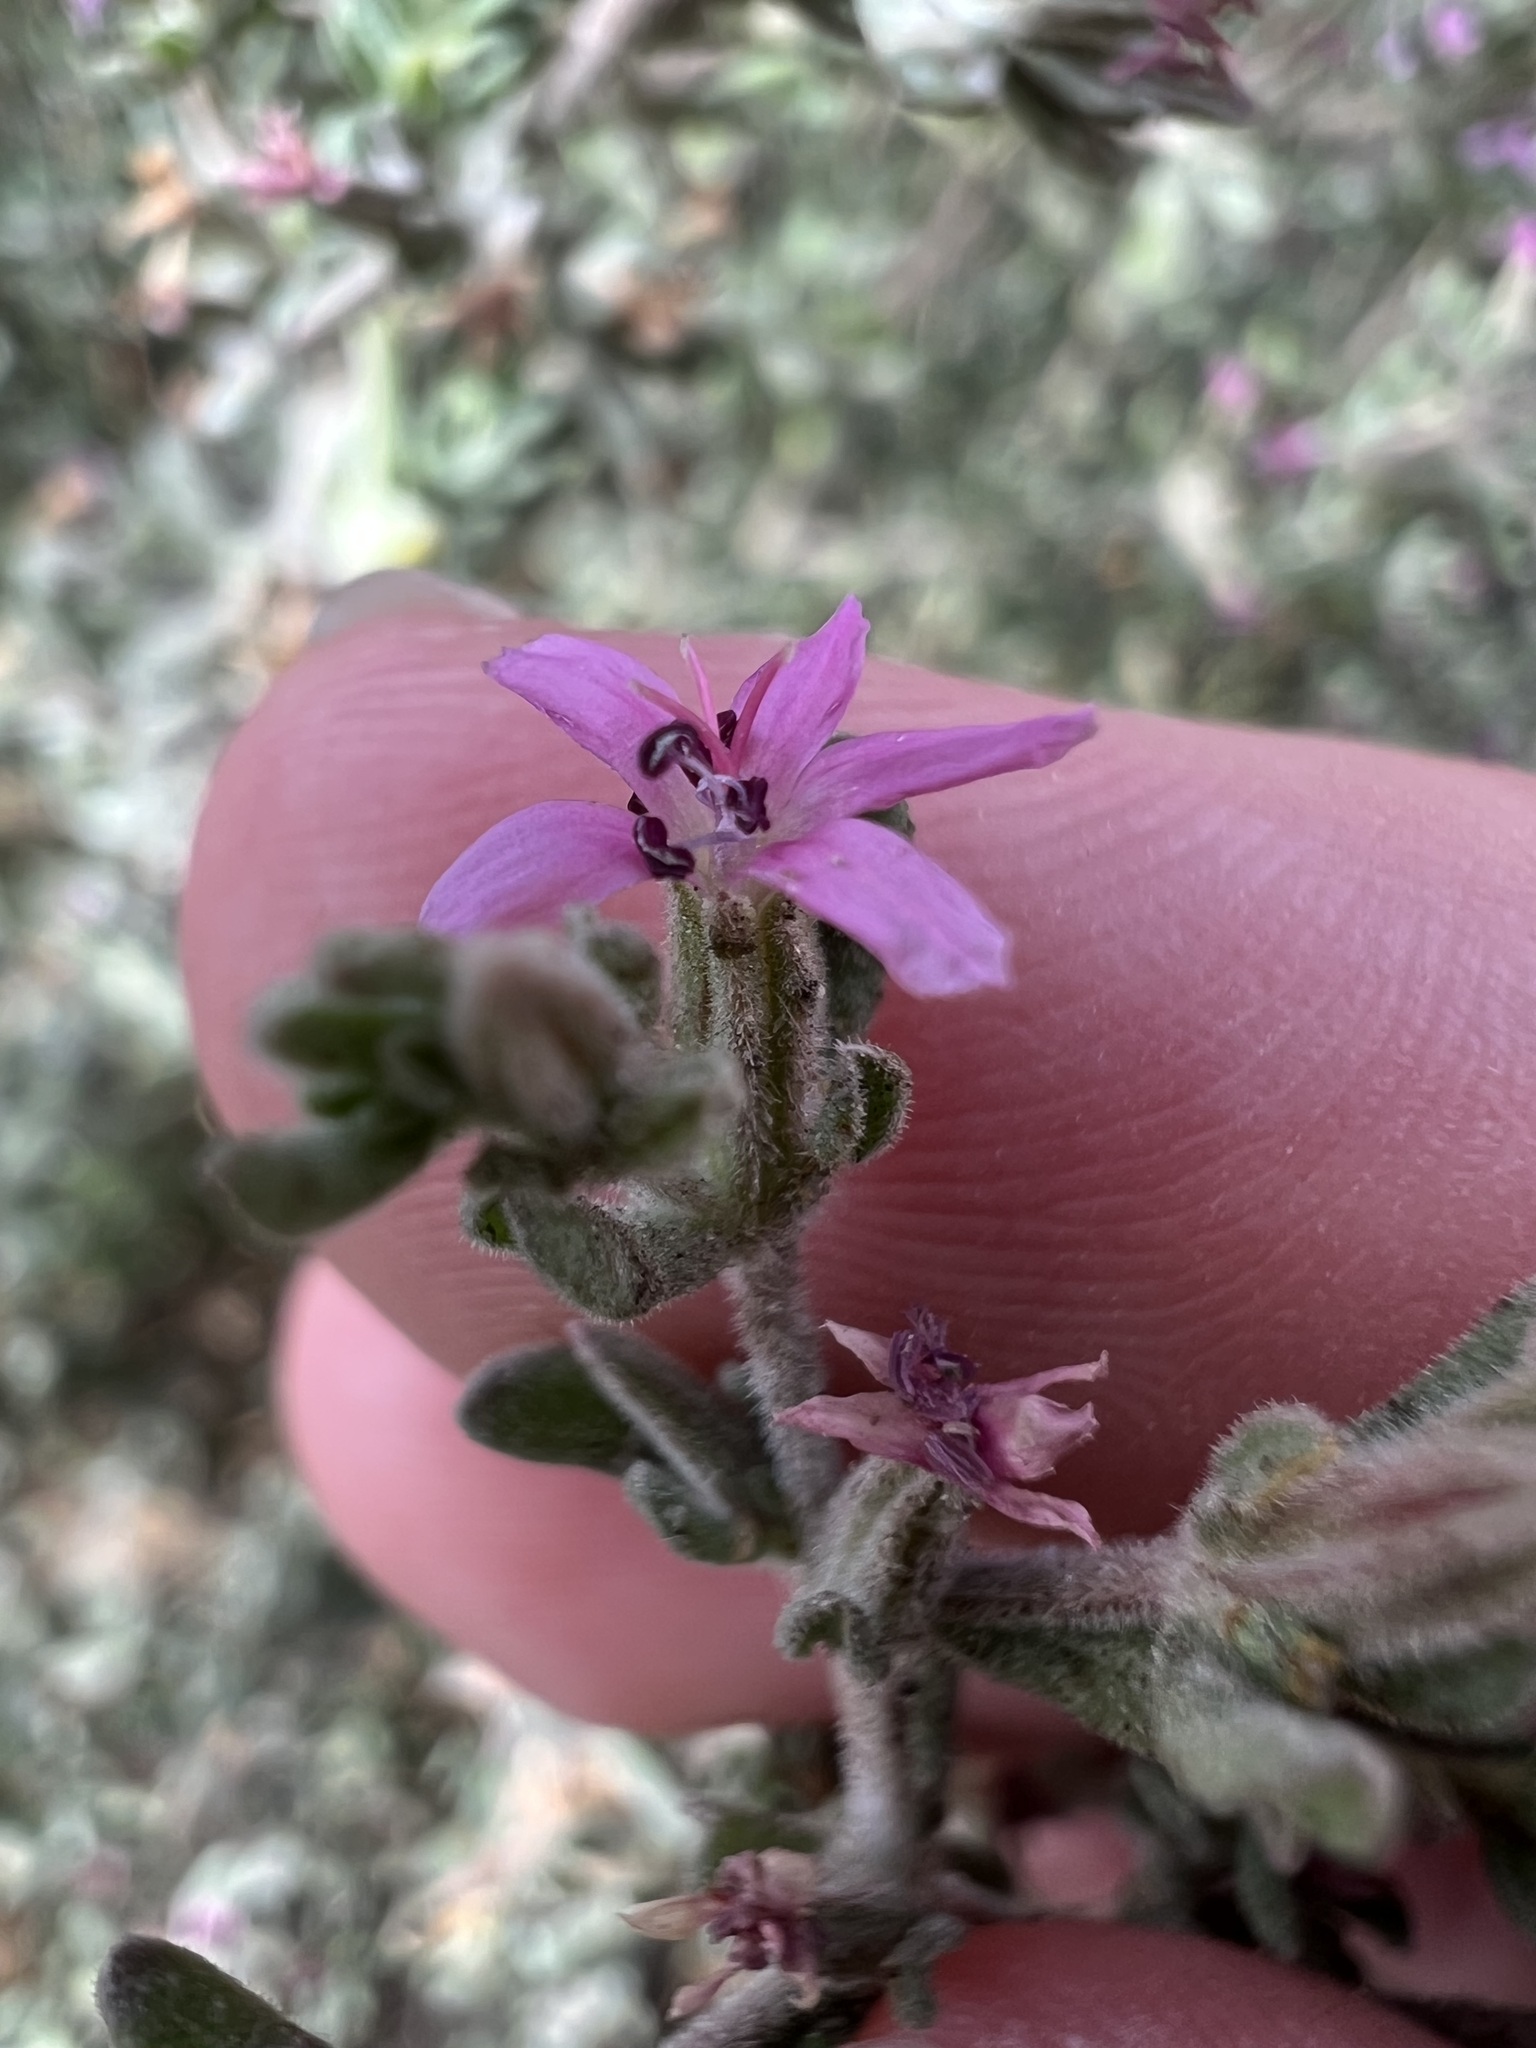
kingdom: Plantae
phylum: Tracheophyta
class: Magnoliopsida
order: Caryophyllales
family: Frankeniaceae
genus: Frankenia
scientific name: Frankenia salina
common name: Alkali seaheath
